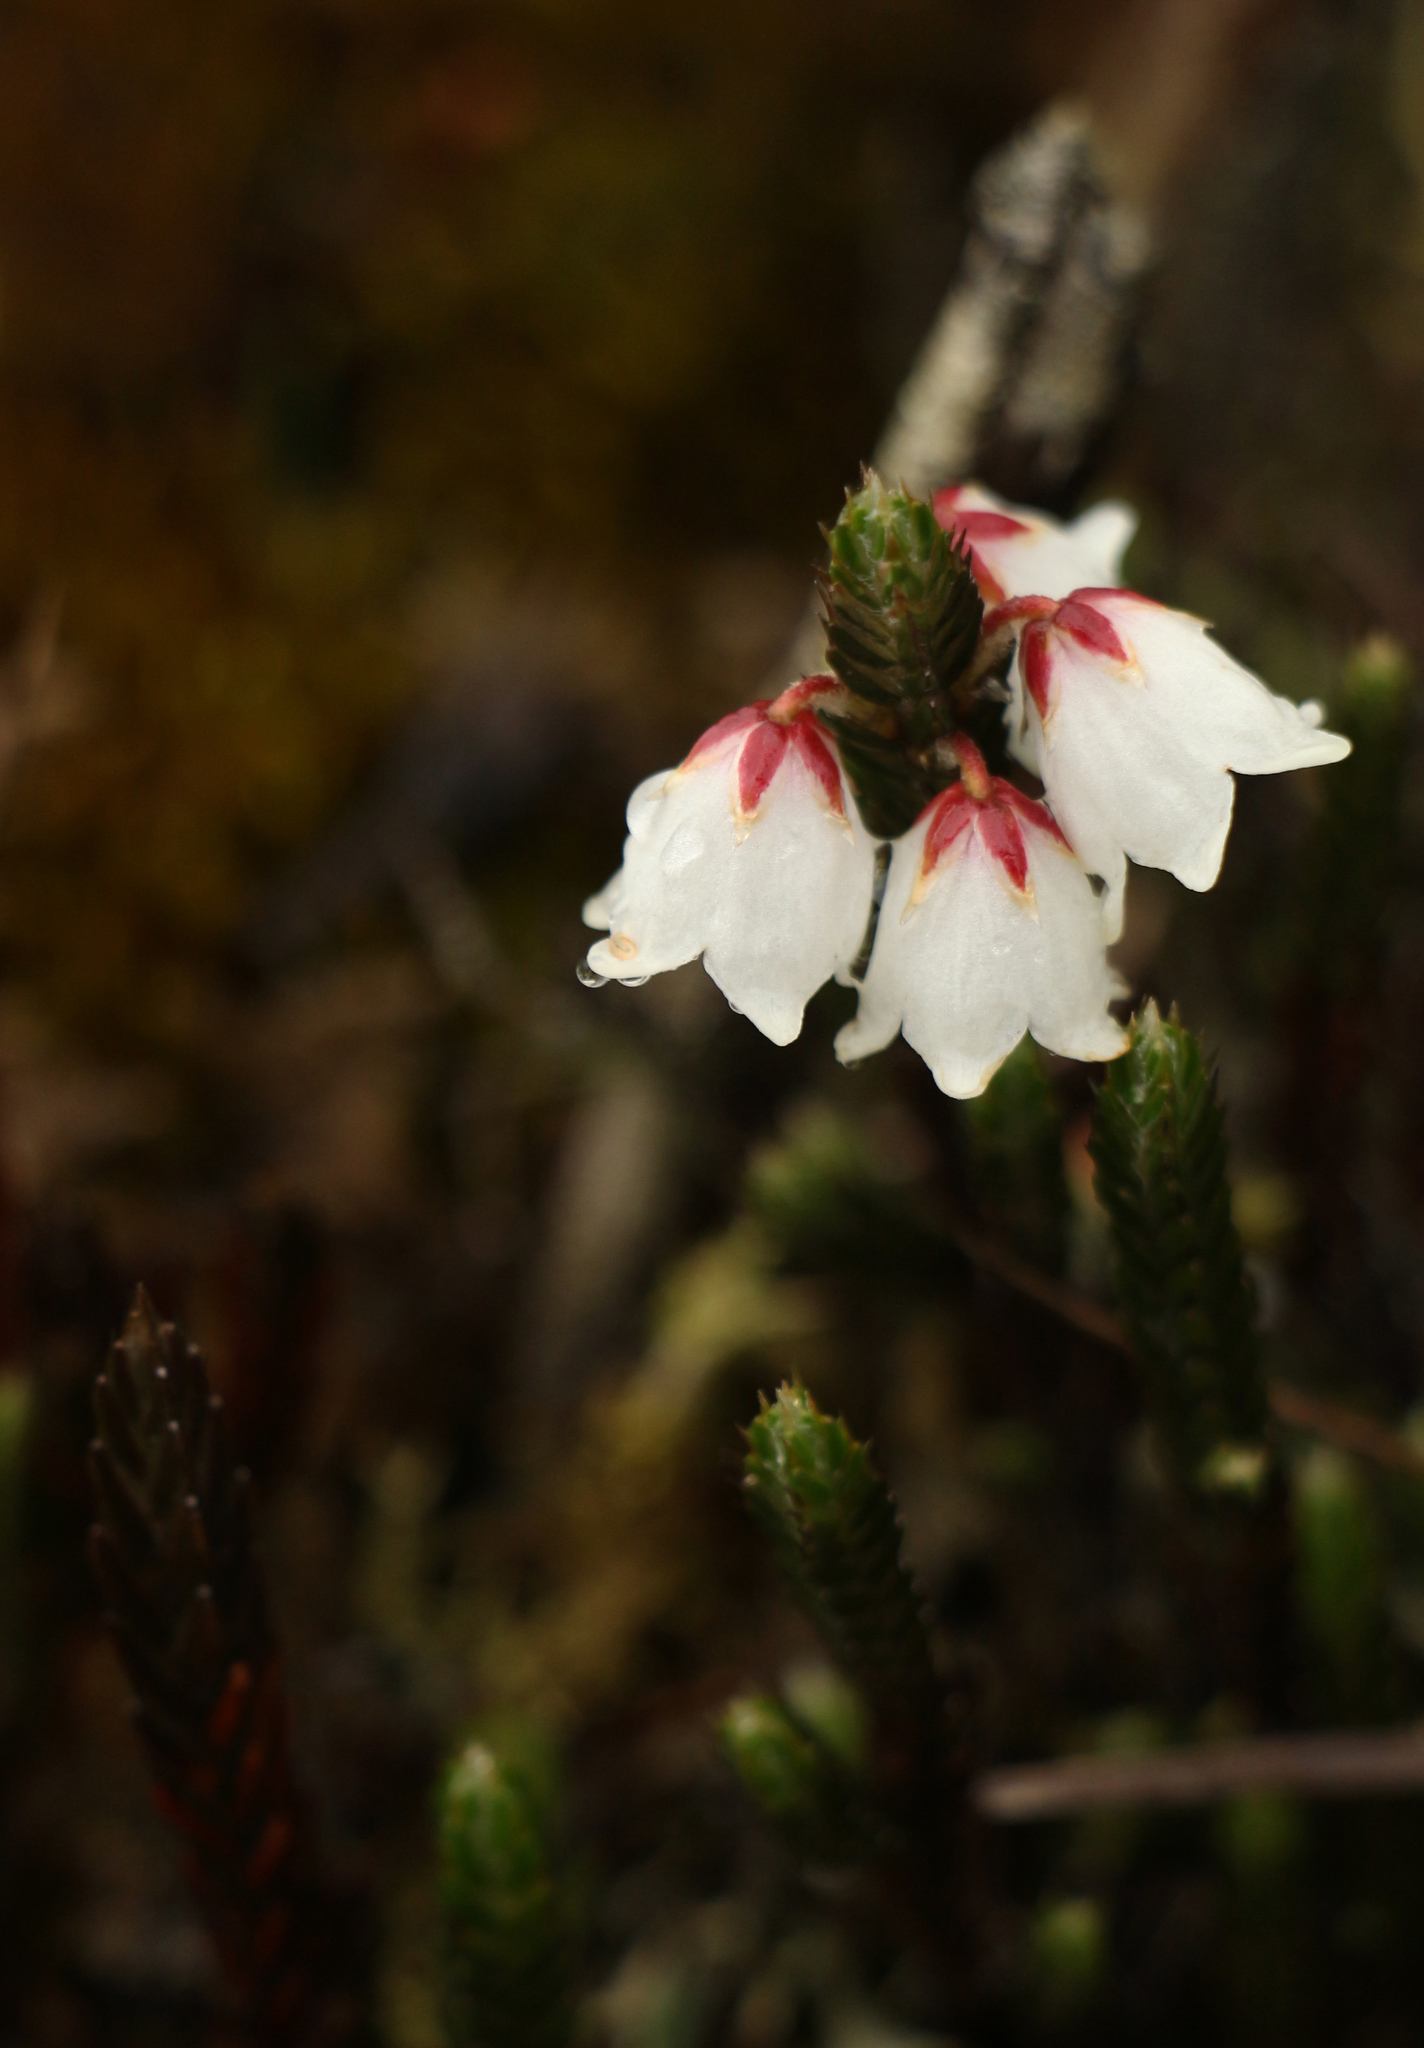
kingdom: Plantae
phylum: Tracheophyta
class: Magnoliopsida
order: Ericales
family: Ericaceae
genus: Cassiope
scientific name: Cassiope fastigiata
